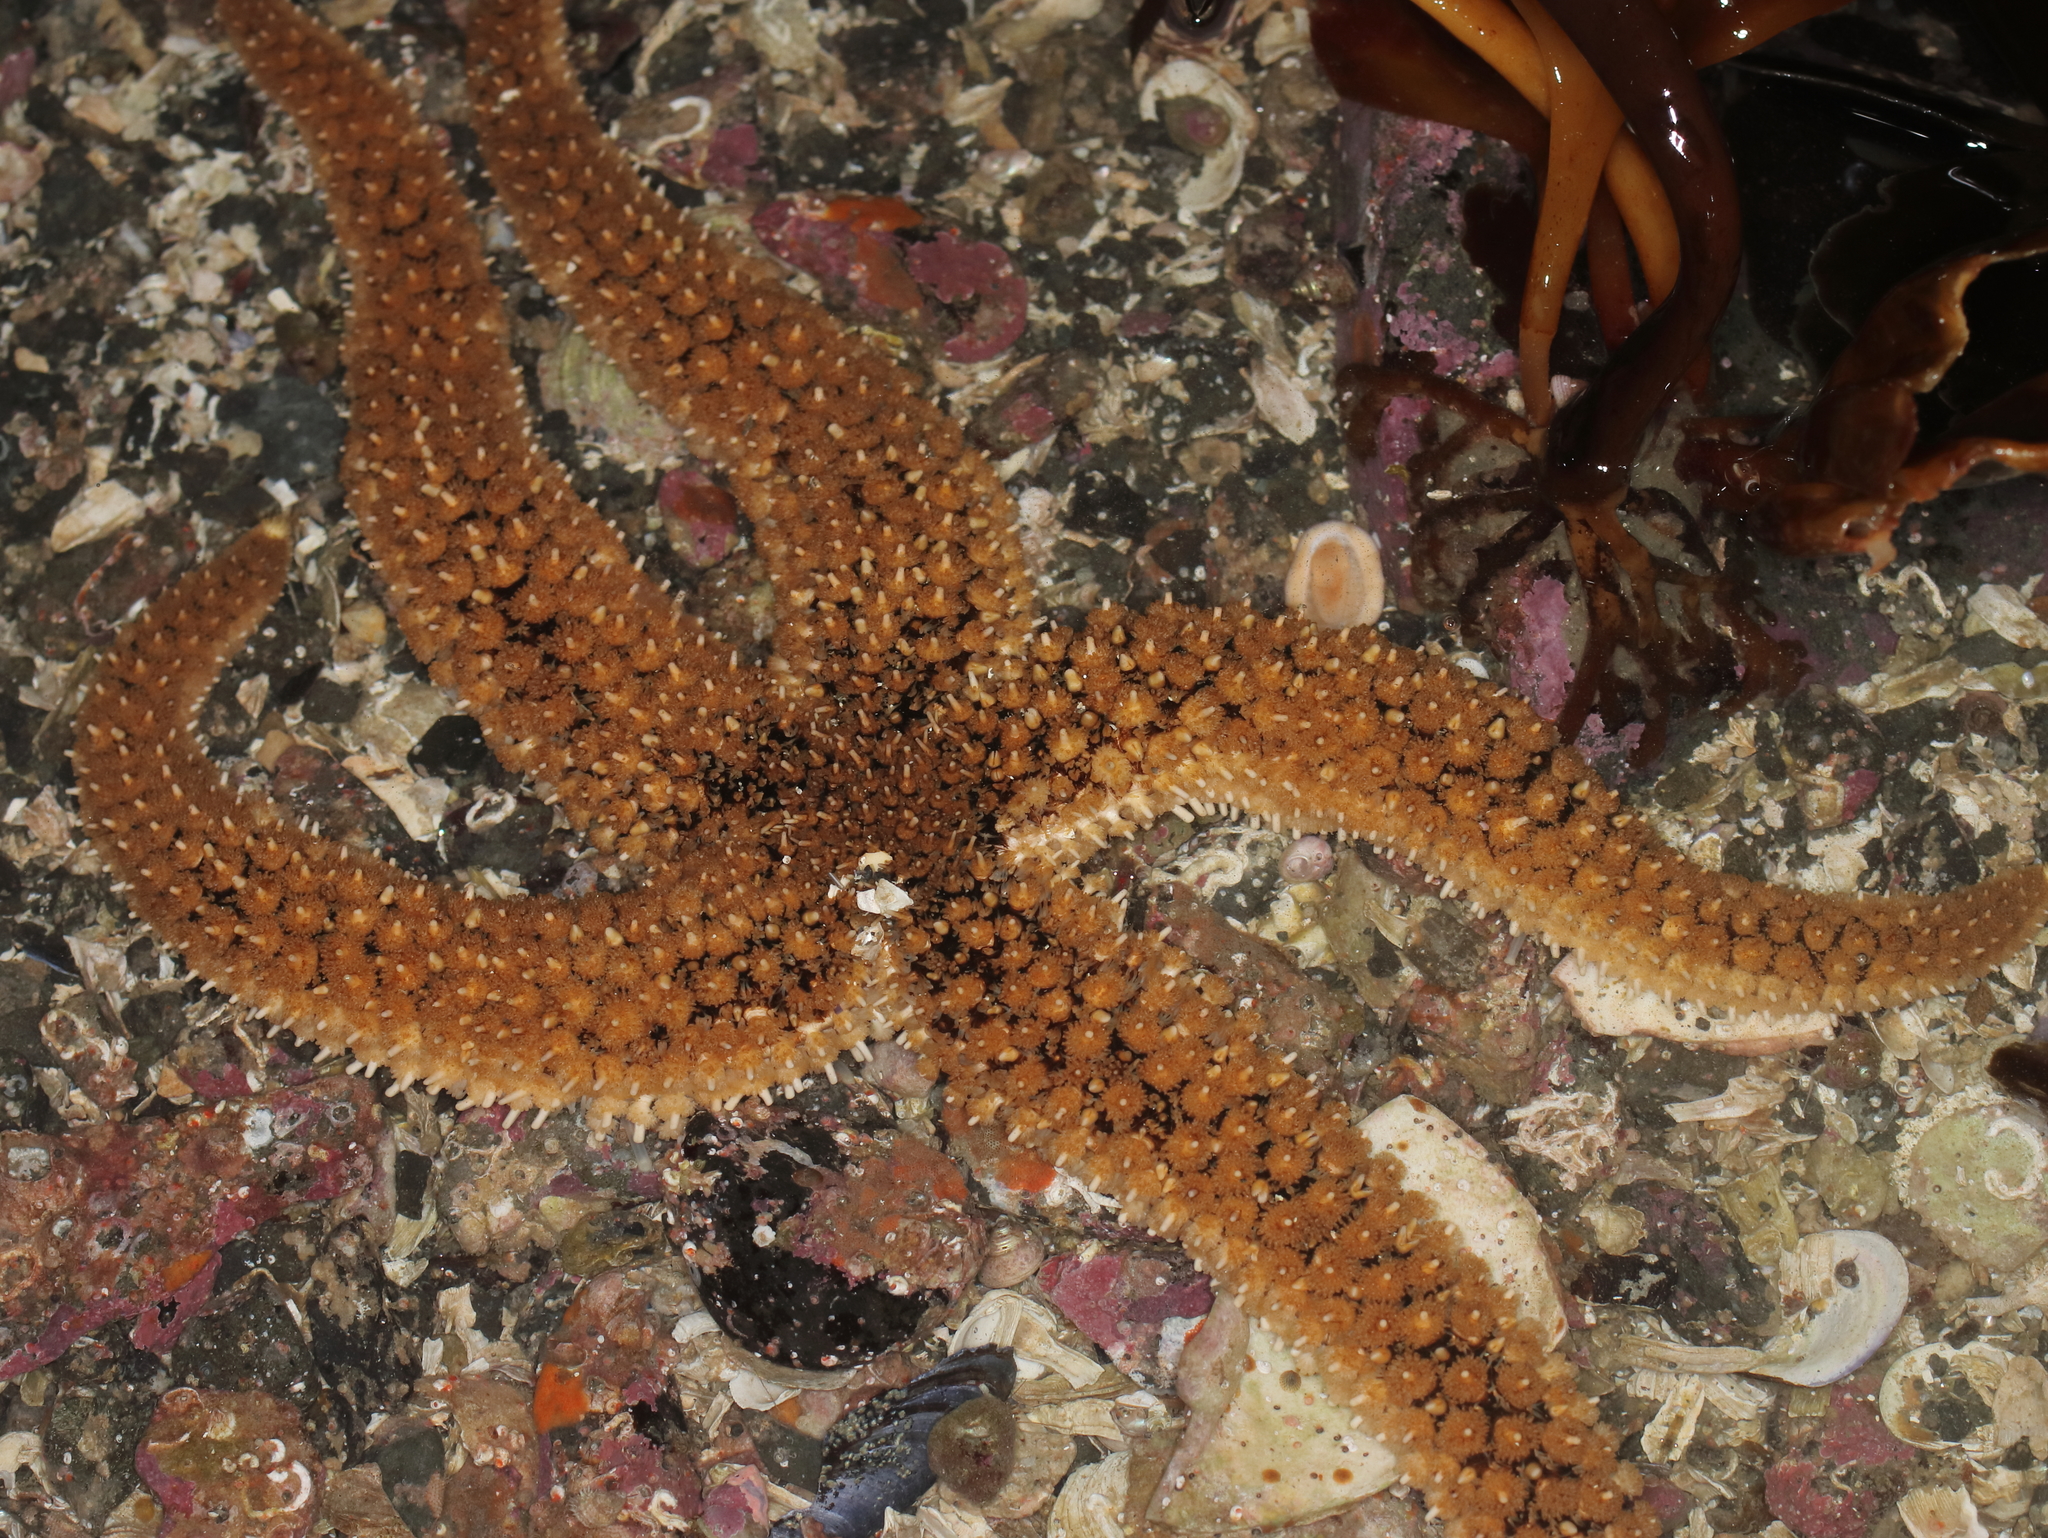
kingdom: Animalia
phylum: Echinodermata
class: Asteroidea
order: Forcipulatida
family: Asteriidae
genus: Stylasterias
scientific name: Stylasterias forreri
